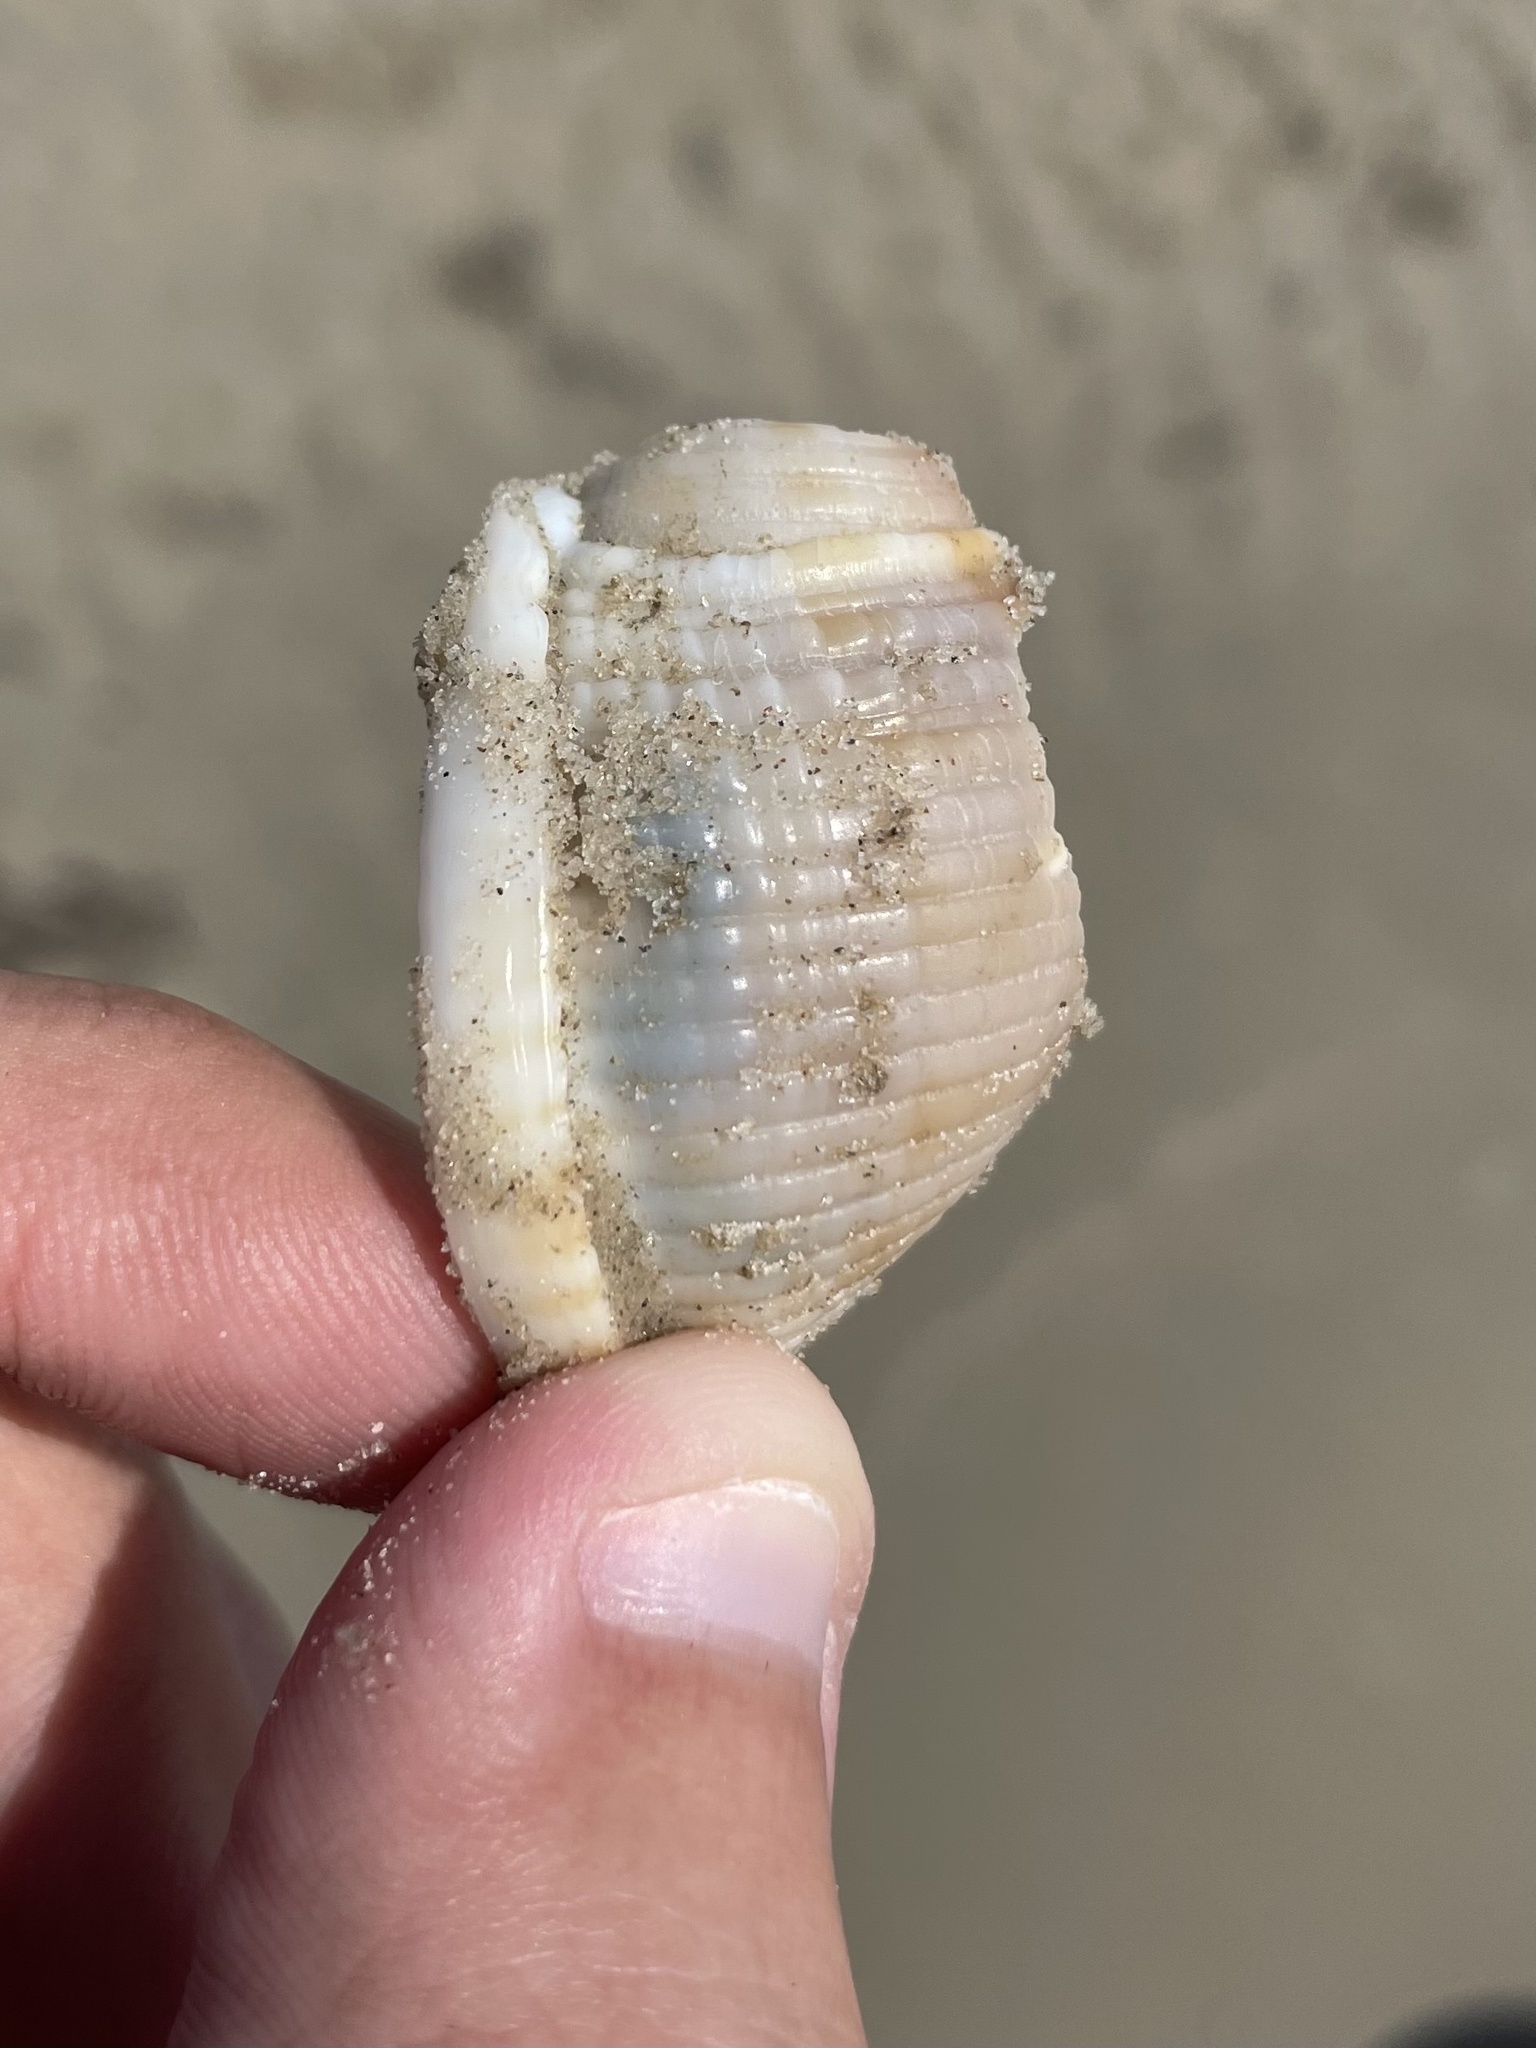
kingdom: Animalia
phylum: Mollusca
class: Gastropoda
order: Littorinimorpha
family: Cassidae
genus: Semicassis
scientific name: Semicassis granulata
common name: Scotch bonnet
